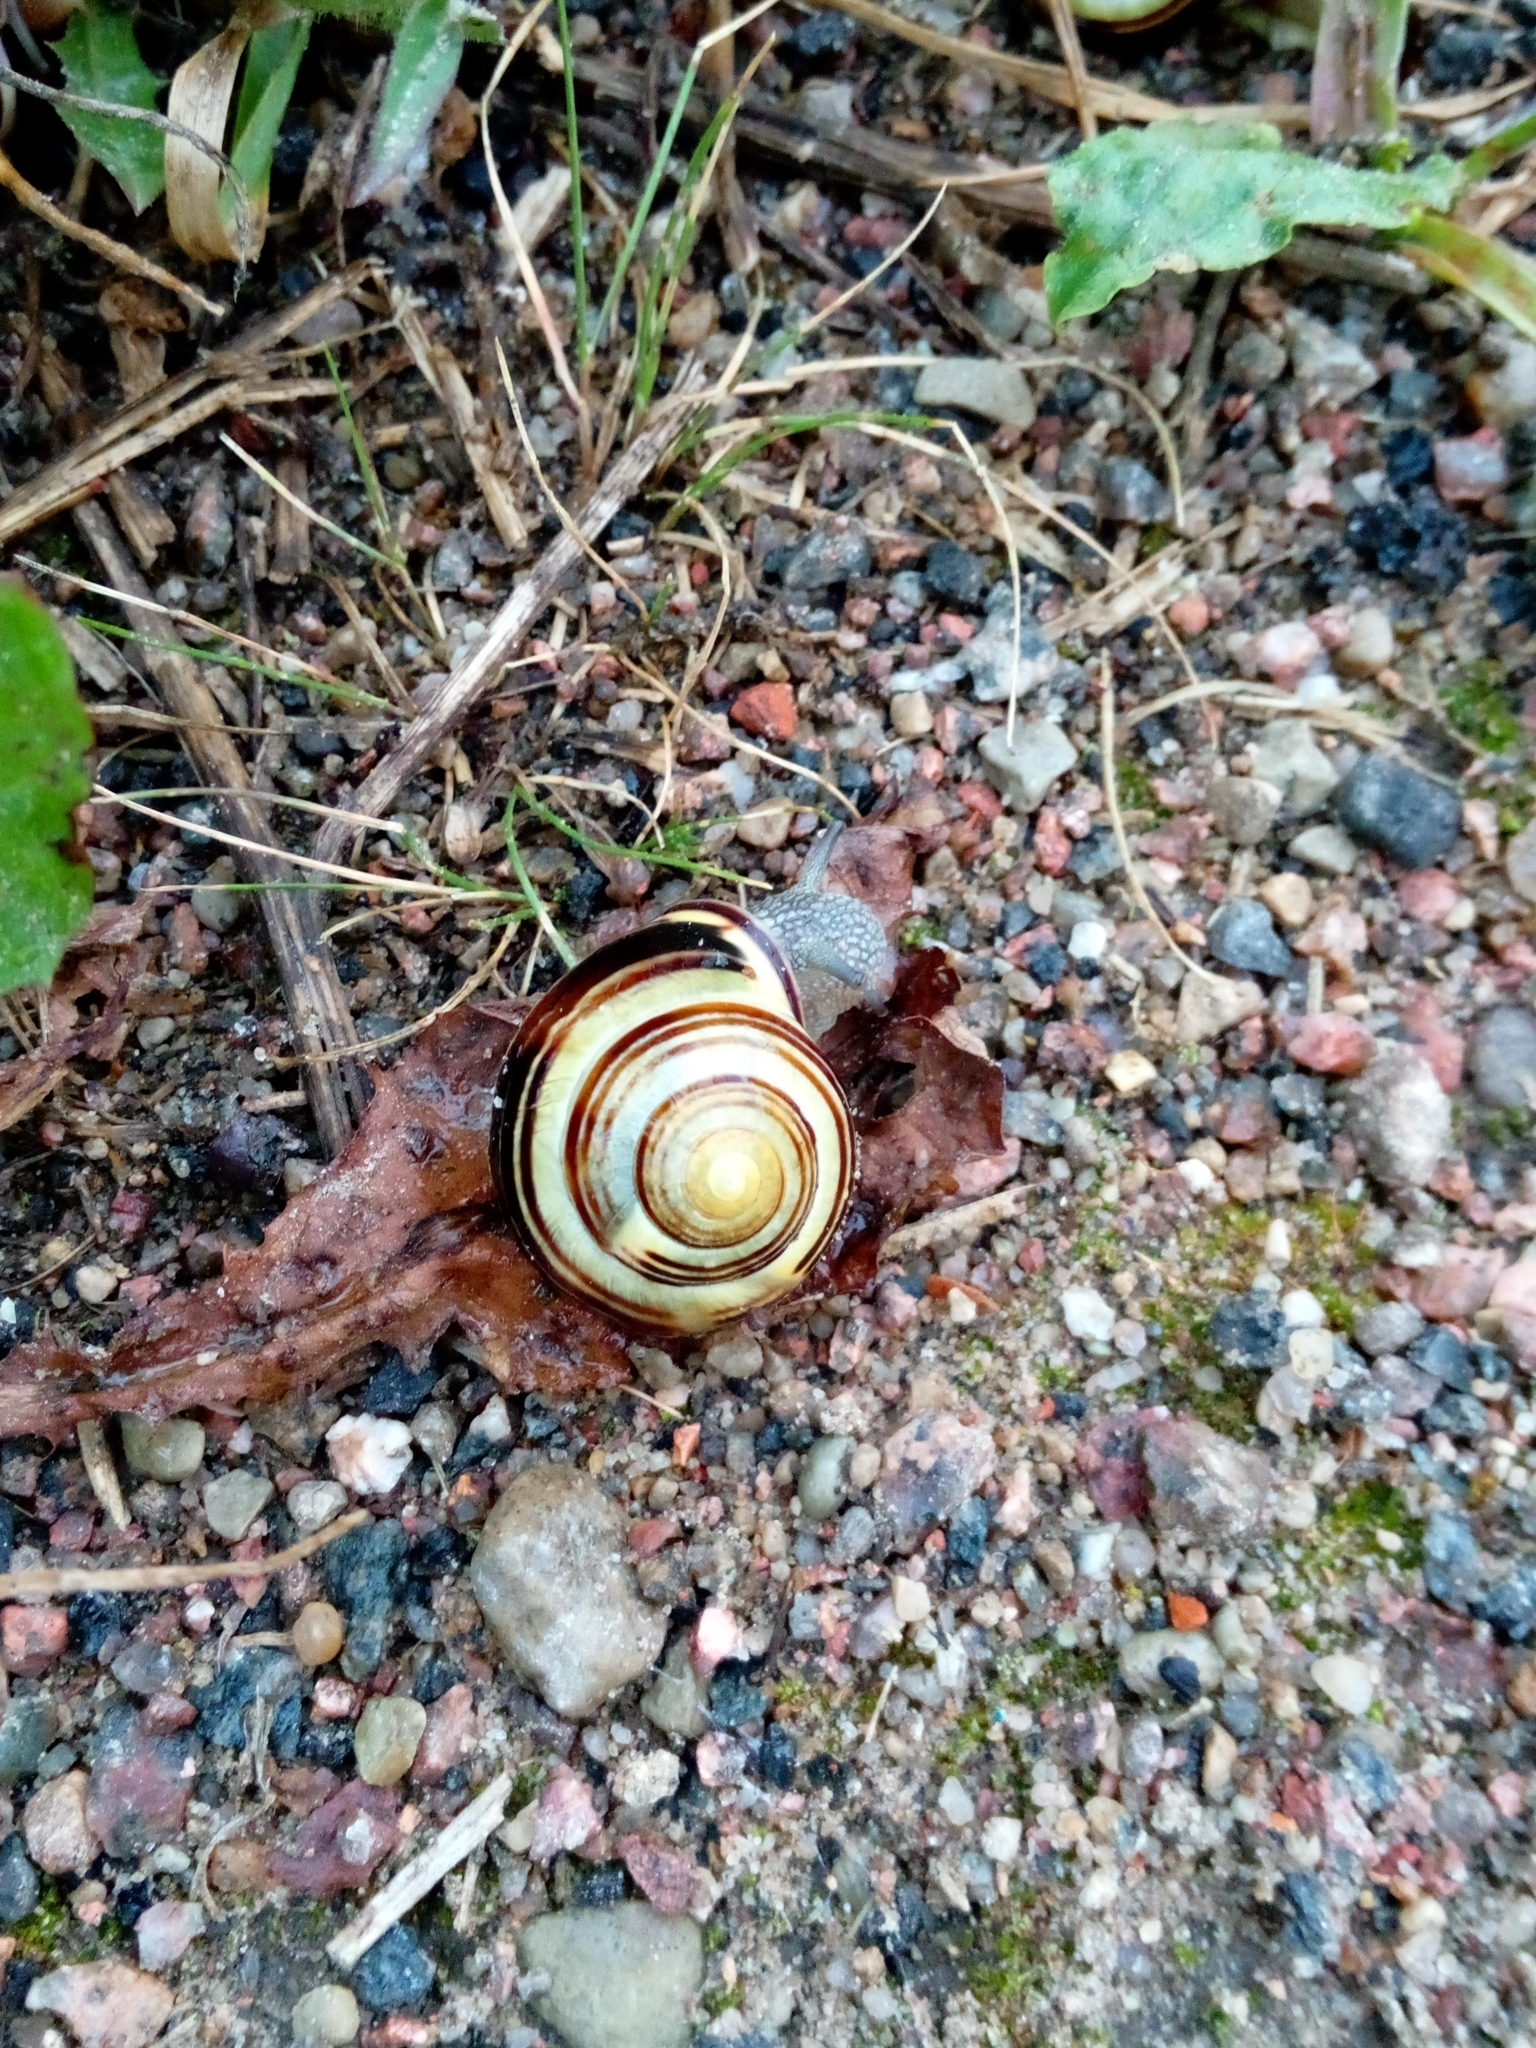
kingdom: Animalia
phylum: Mollusca
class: Gastropoda
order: Stylommatophora
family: Helicidae
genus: Cepaea
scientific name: Cepaea nemoralis
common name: Grovesnail
